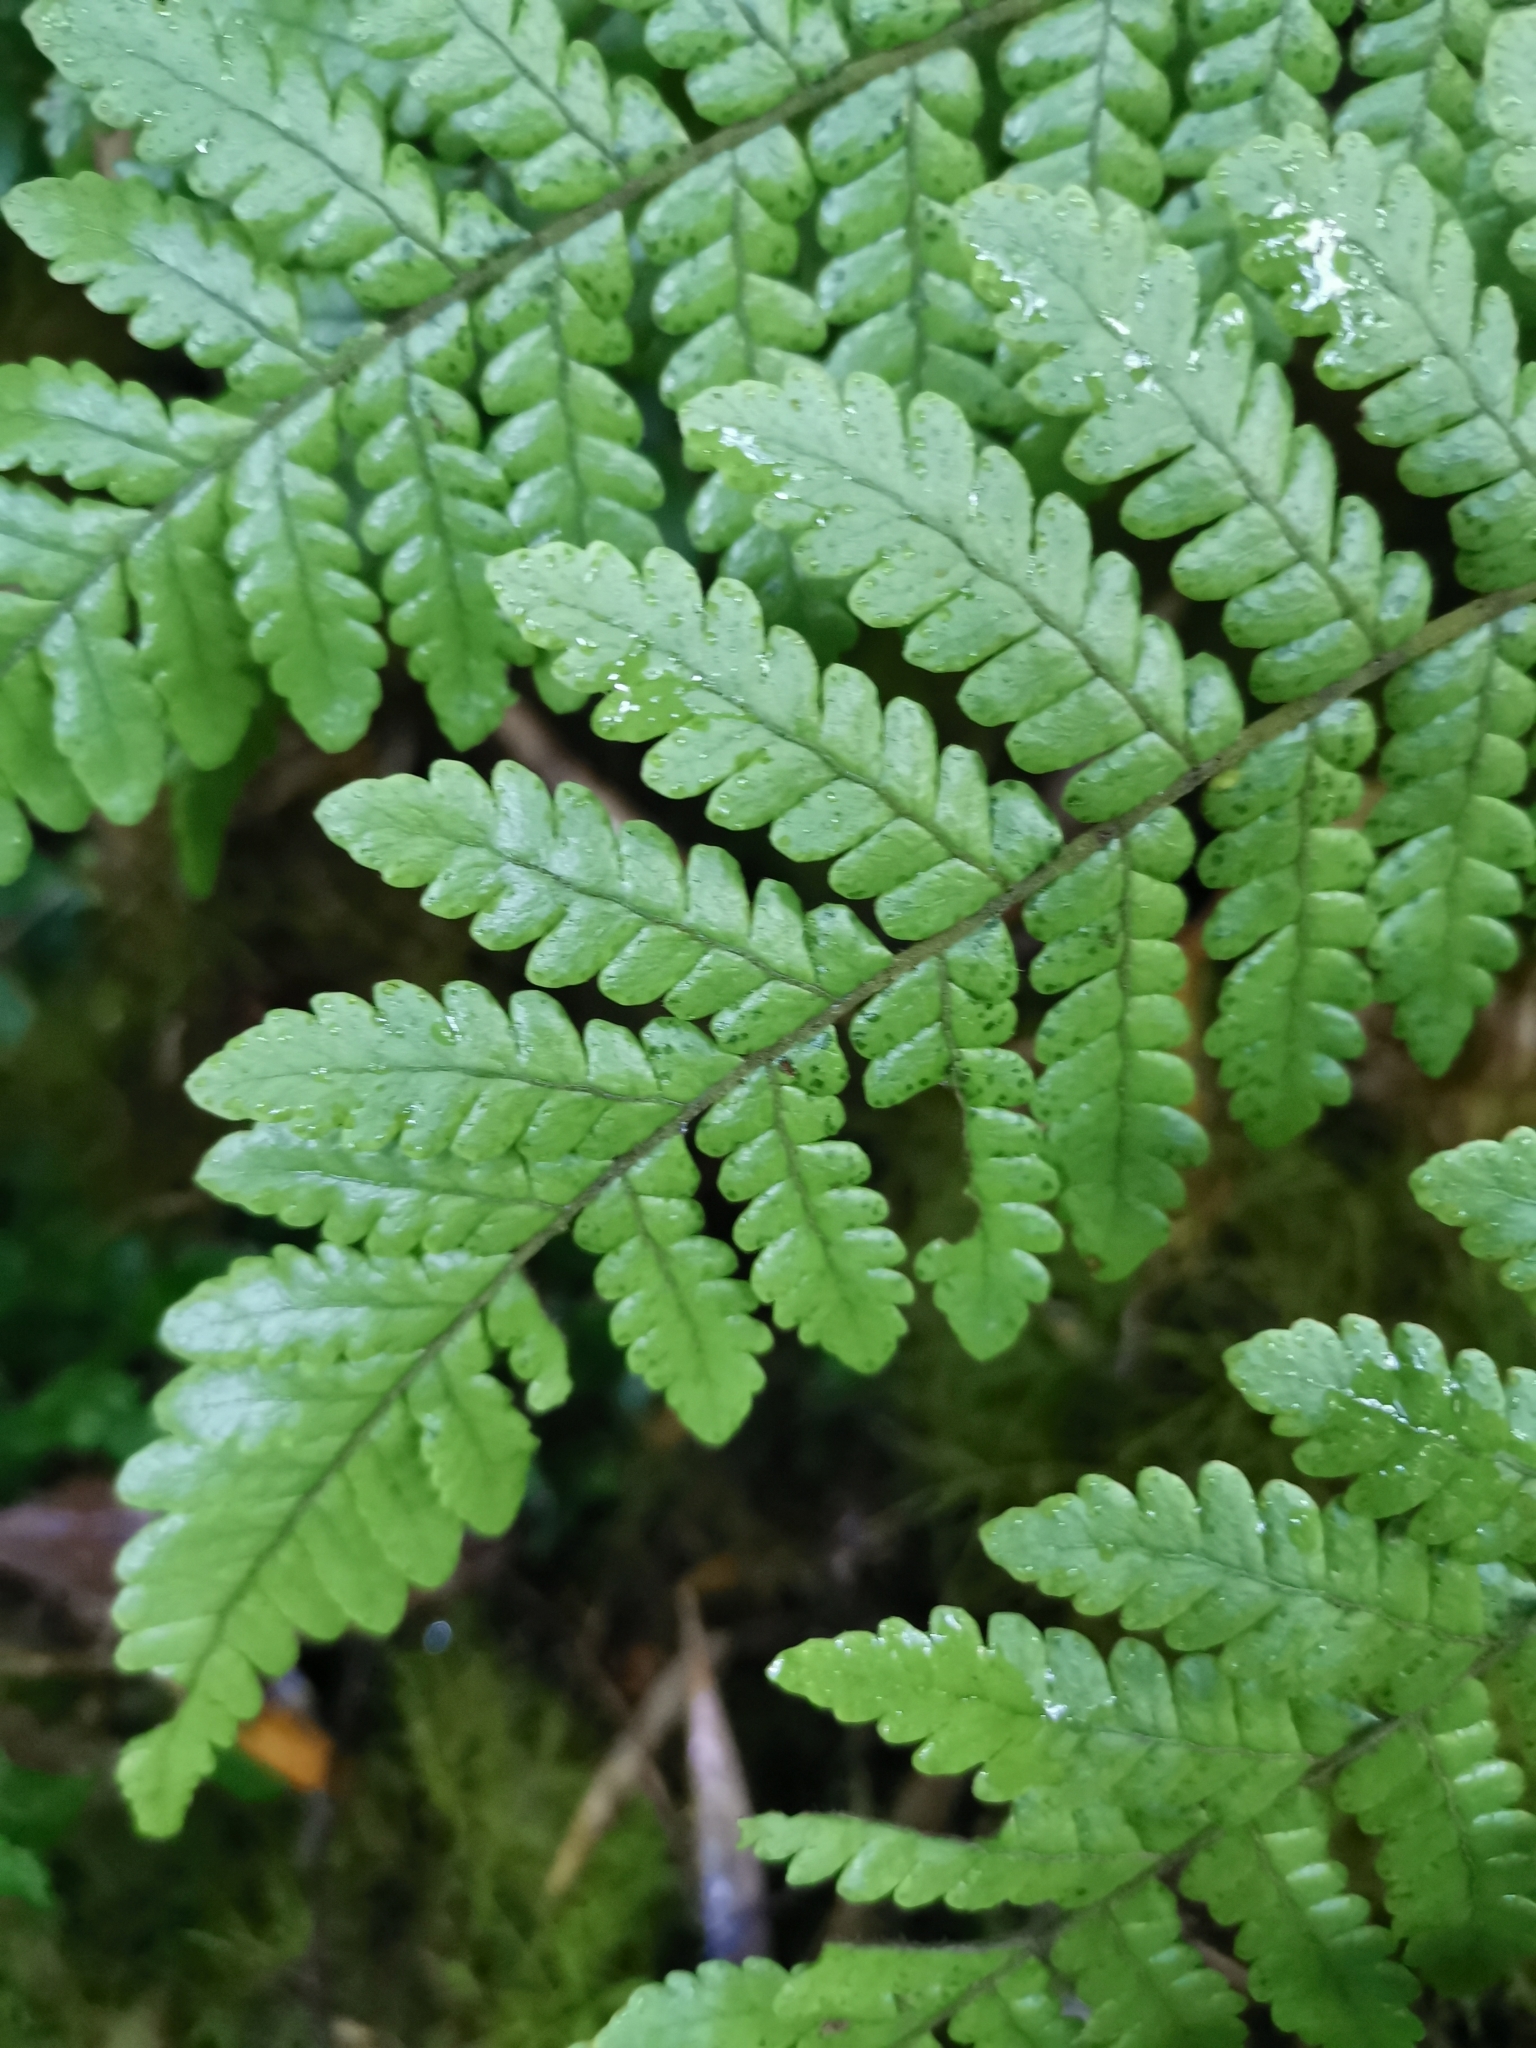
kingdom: Plantae
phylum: Tracheophyta
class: Polypodiopsida
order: Polypodiales
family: Dryopteridaceae
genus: Megalastrum
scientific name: Megalastrum spectabile
